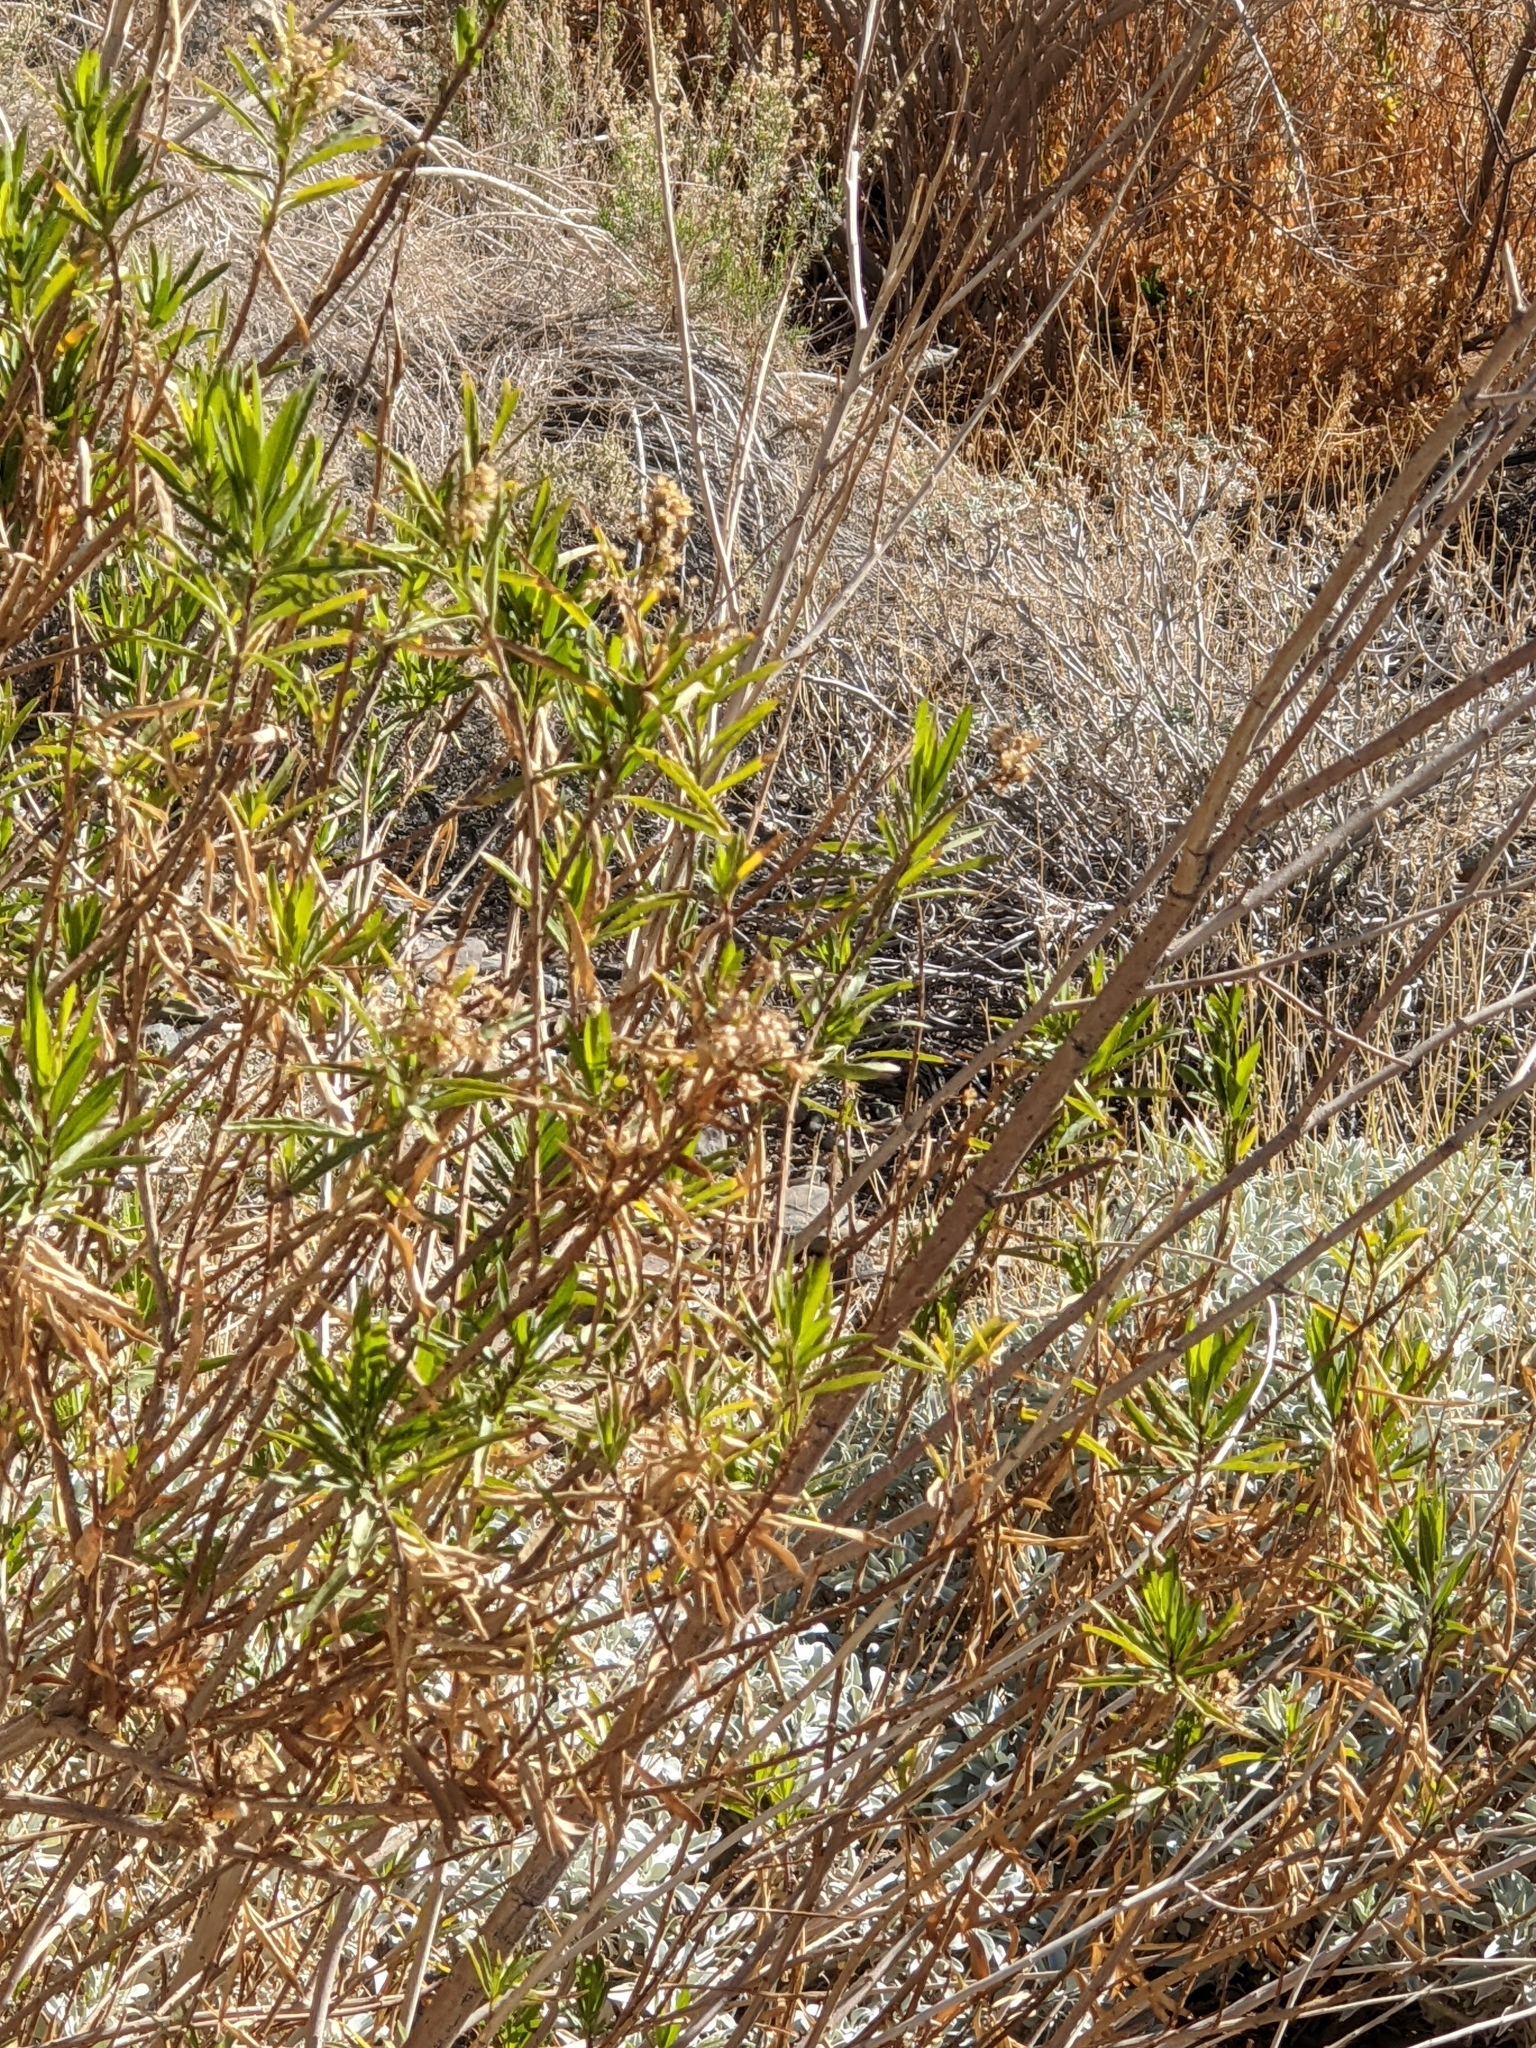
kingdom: Plantae
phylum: Tracheophyta
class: Magnoliopsida
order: Asterales
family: Asteraceae
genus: Baccharis
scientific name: Baccharis salicifolia
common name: Sticky baccharis
